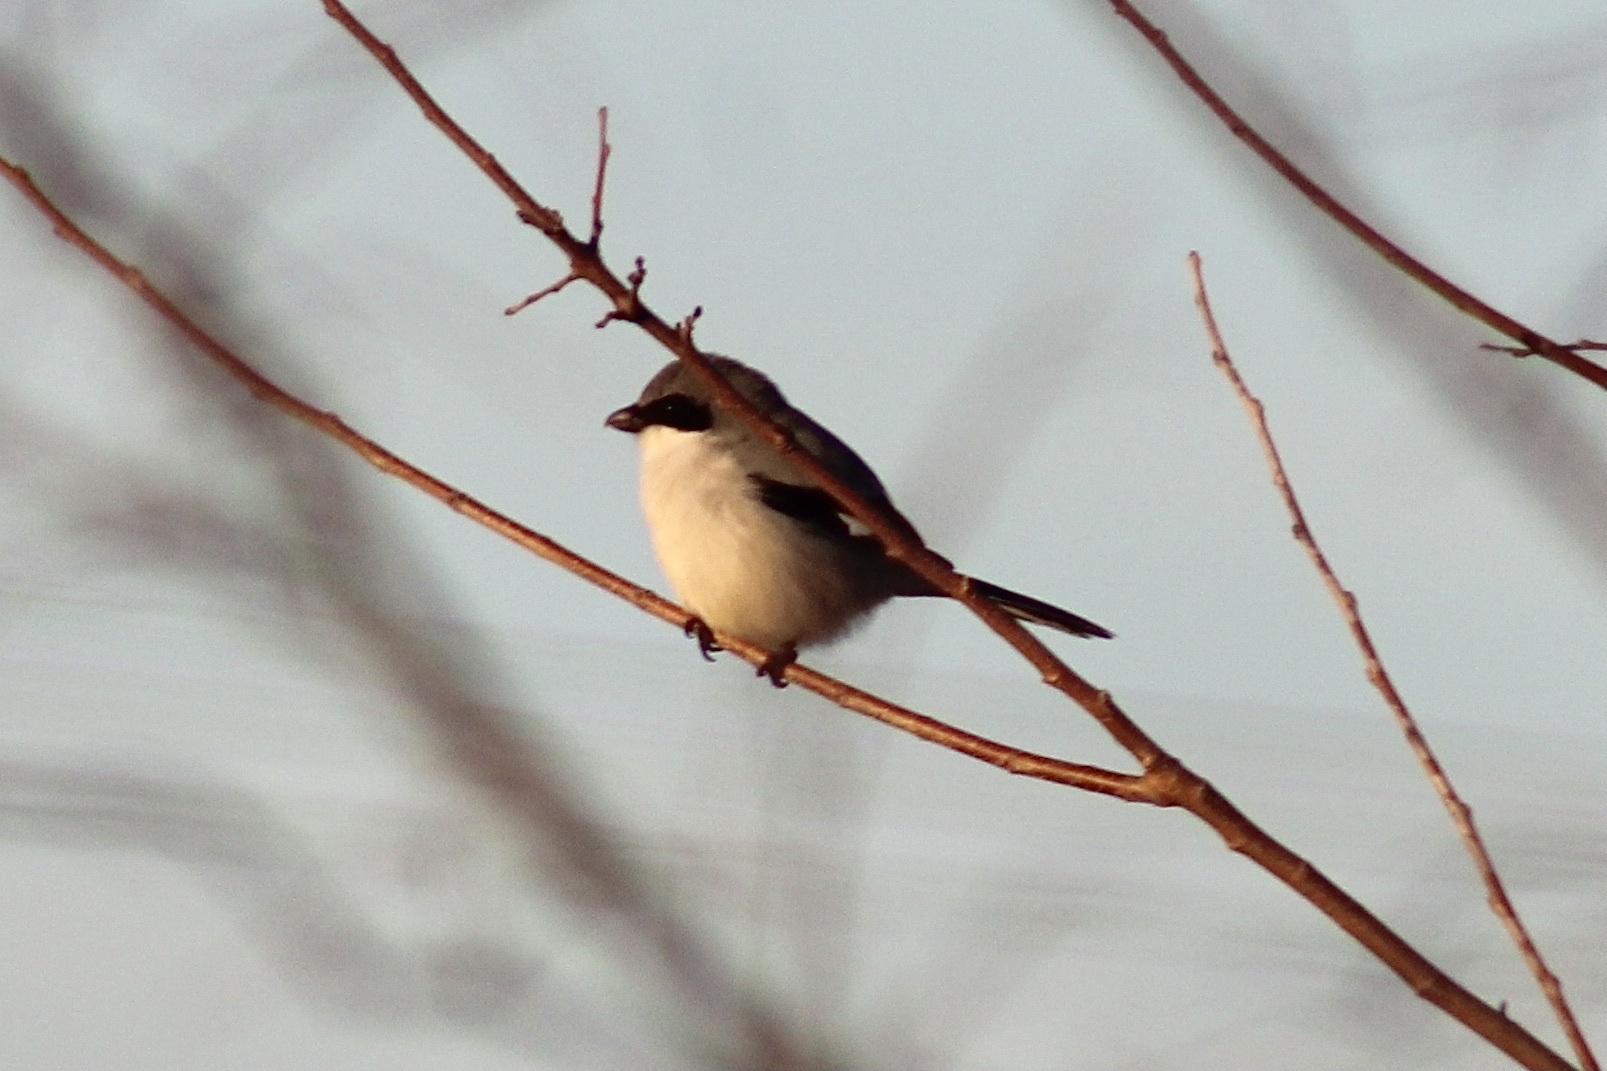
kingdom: Animalia
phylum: Chordata
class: Aves
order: Passeriformes
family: Laniidae
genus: Lanius
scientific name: Lanius ludovicianus
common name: Loggerhead shrike
